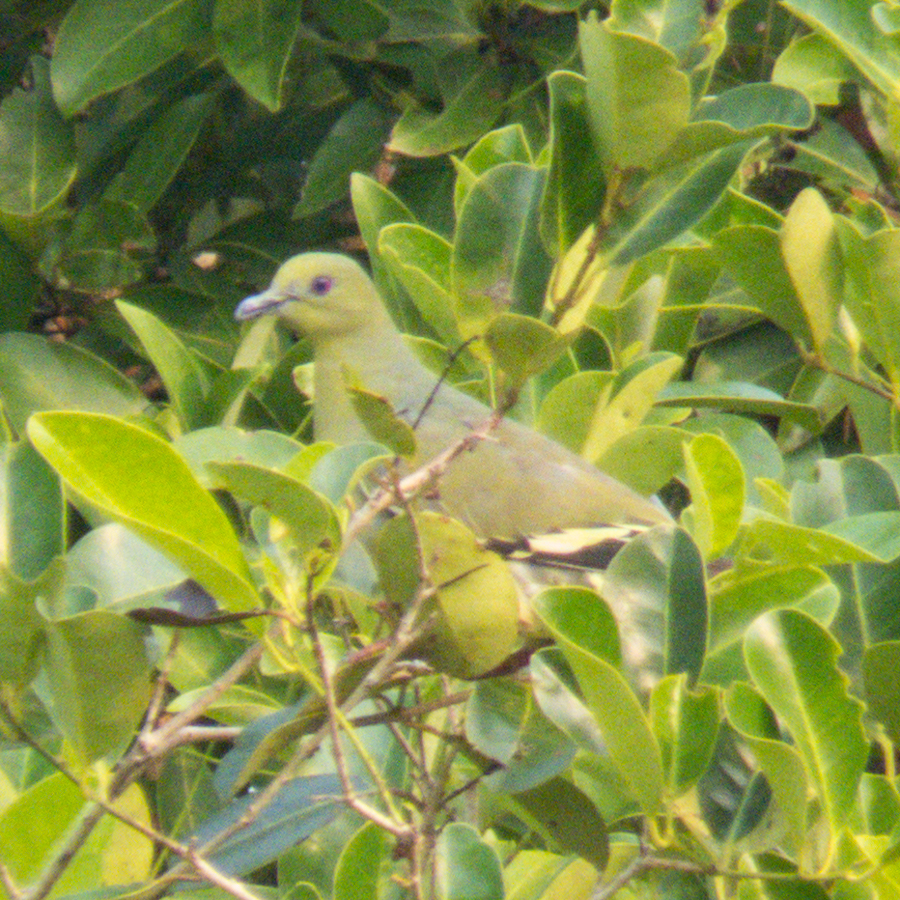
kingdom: Animalia
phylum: Chordata
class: Aves
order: Columbiformes
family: Columbidae
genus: Treron
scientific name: Treron vernans
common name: Pink-necked green pigeon
